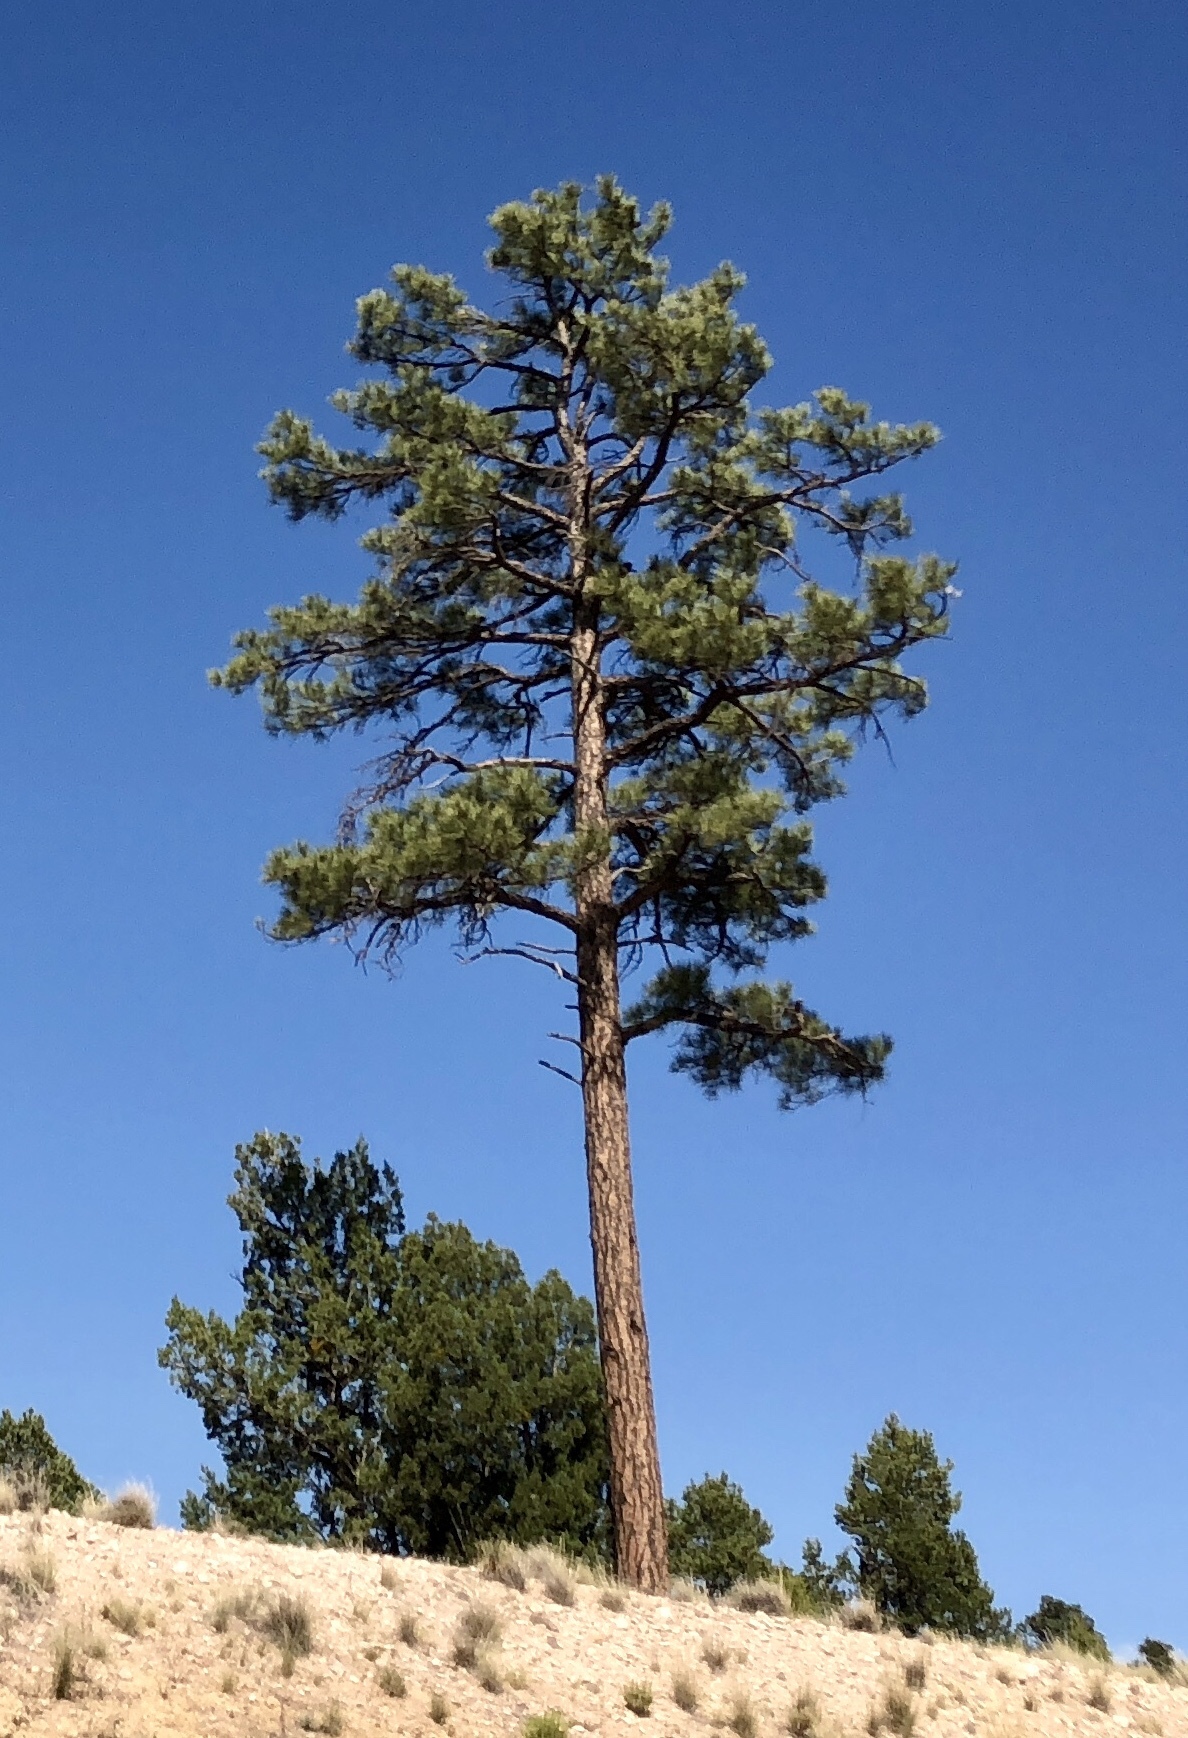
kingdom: Plantae
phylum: Tracheophyta
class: Pinopsida
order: Pinales
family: Pinaceae
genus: Pinus
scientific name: Pinus ponderosa
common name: Western yellow-pine
